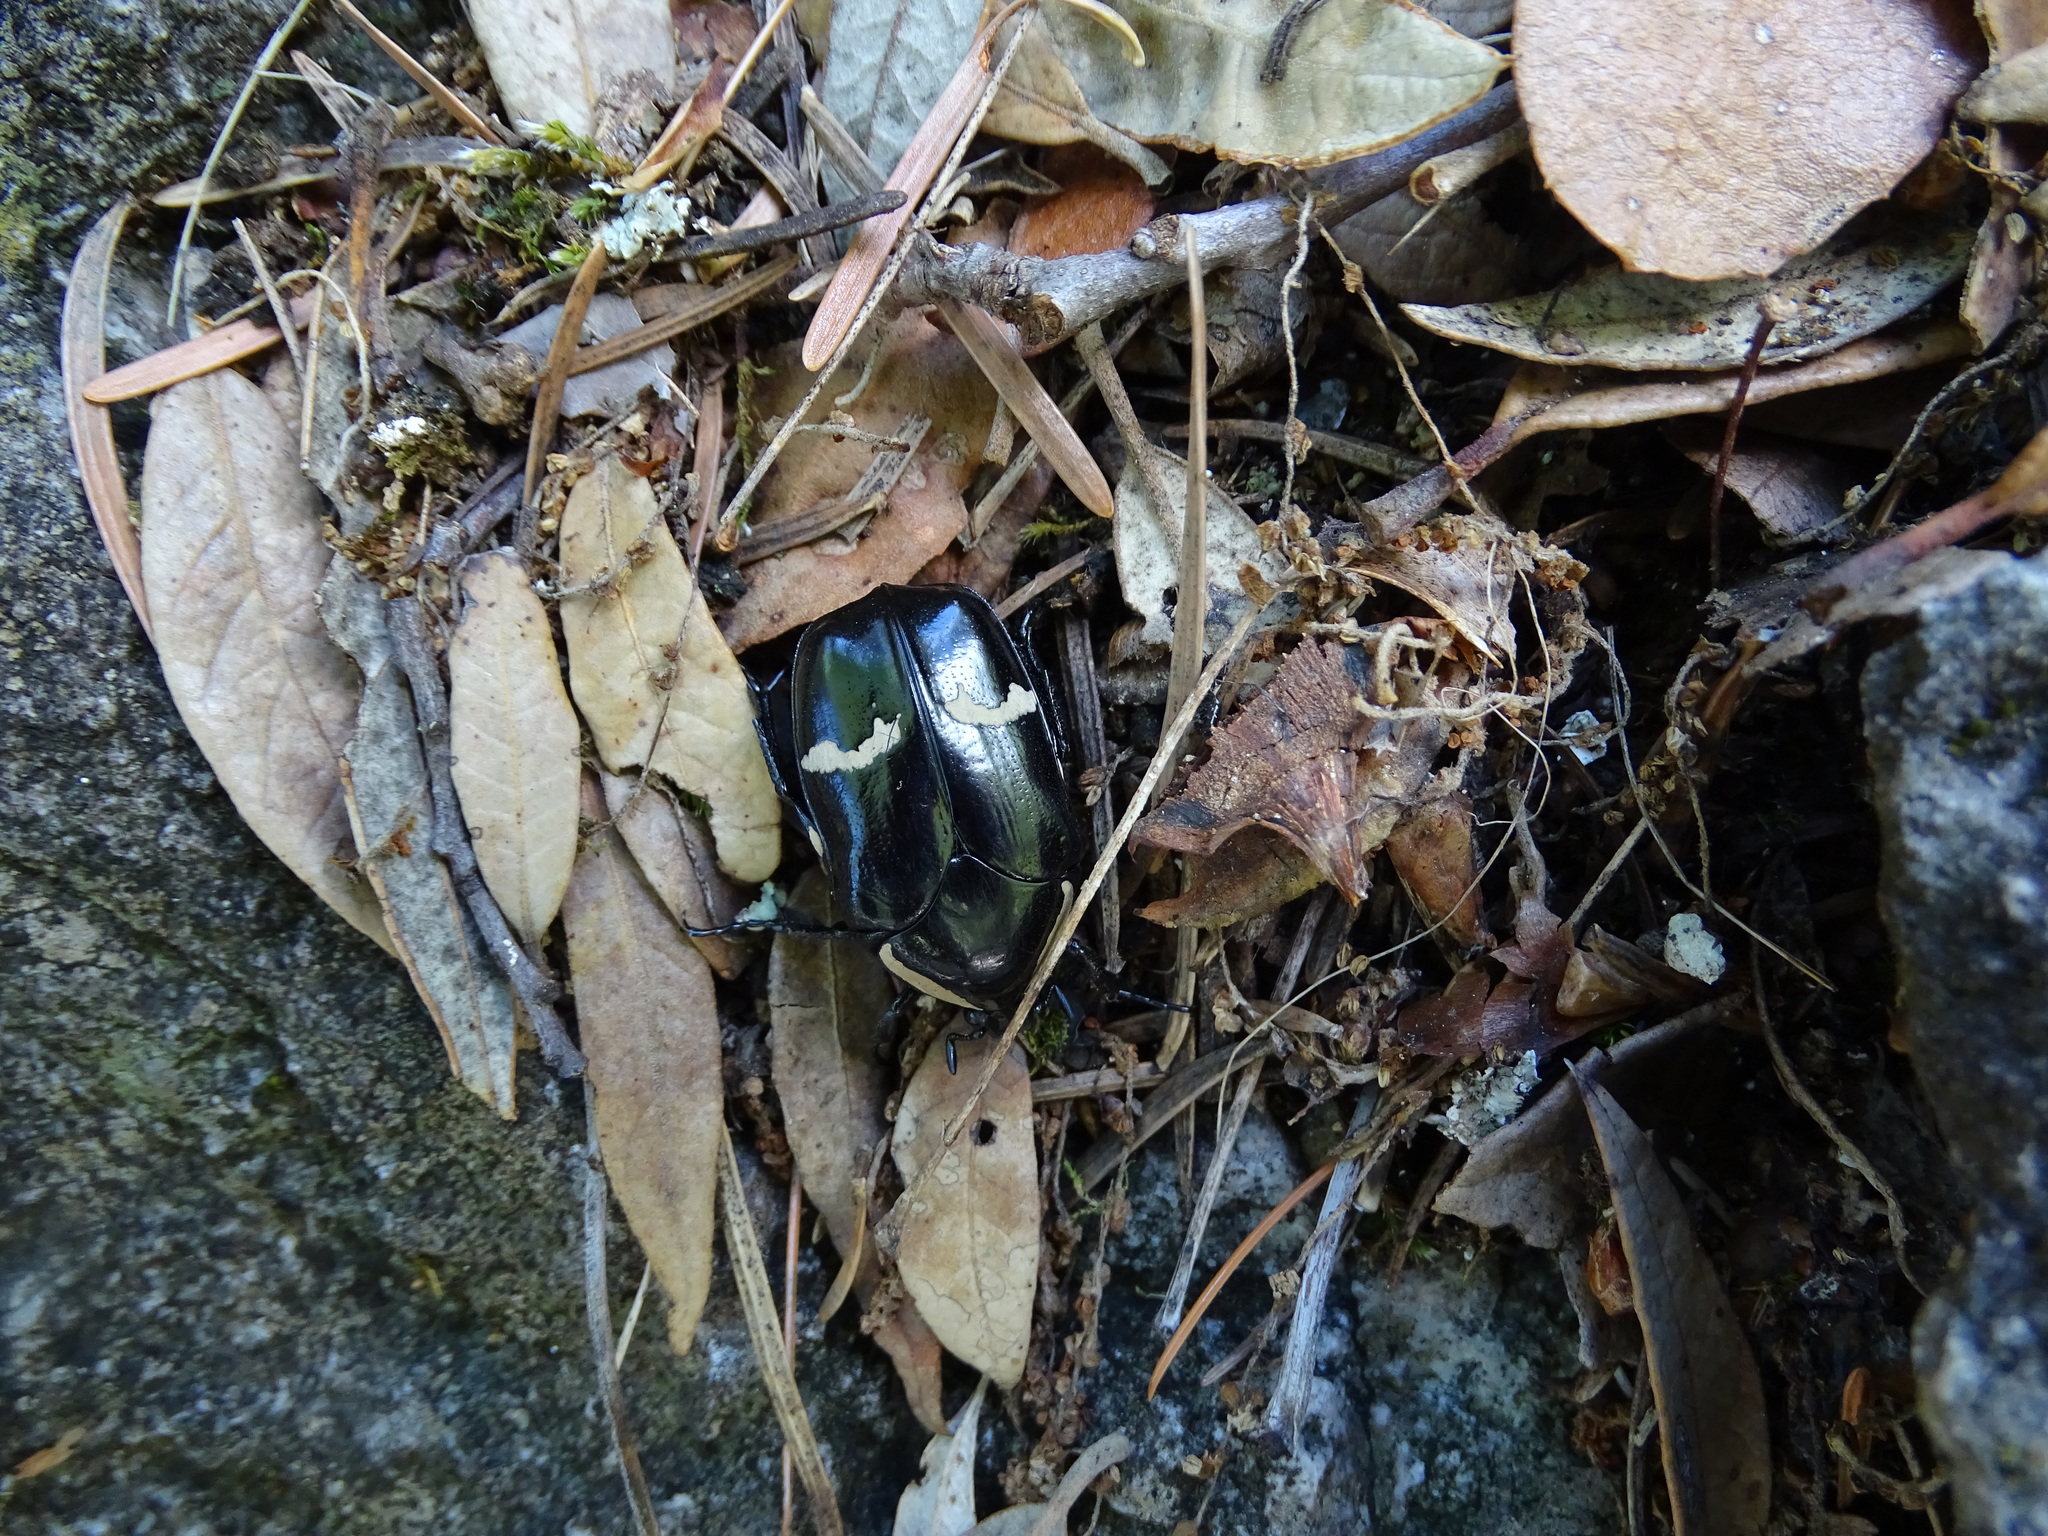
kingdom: Animalia
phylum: Arthropoda
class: Insecta
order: Coleoptera
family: Scarabaeidae
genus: Gymnetina
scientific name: Gymnetina howdeni
